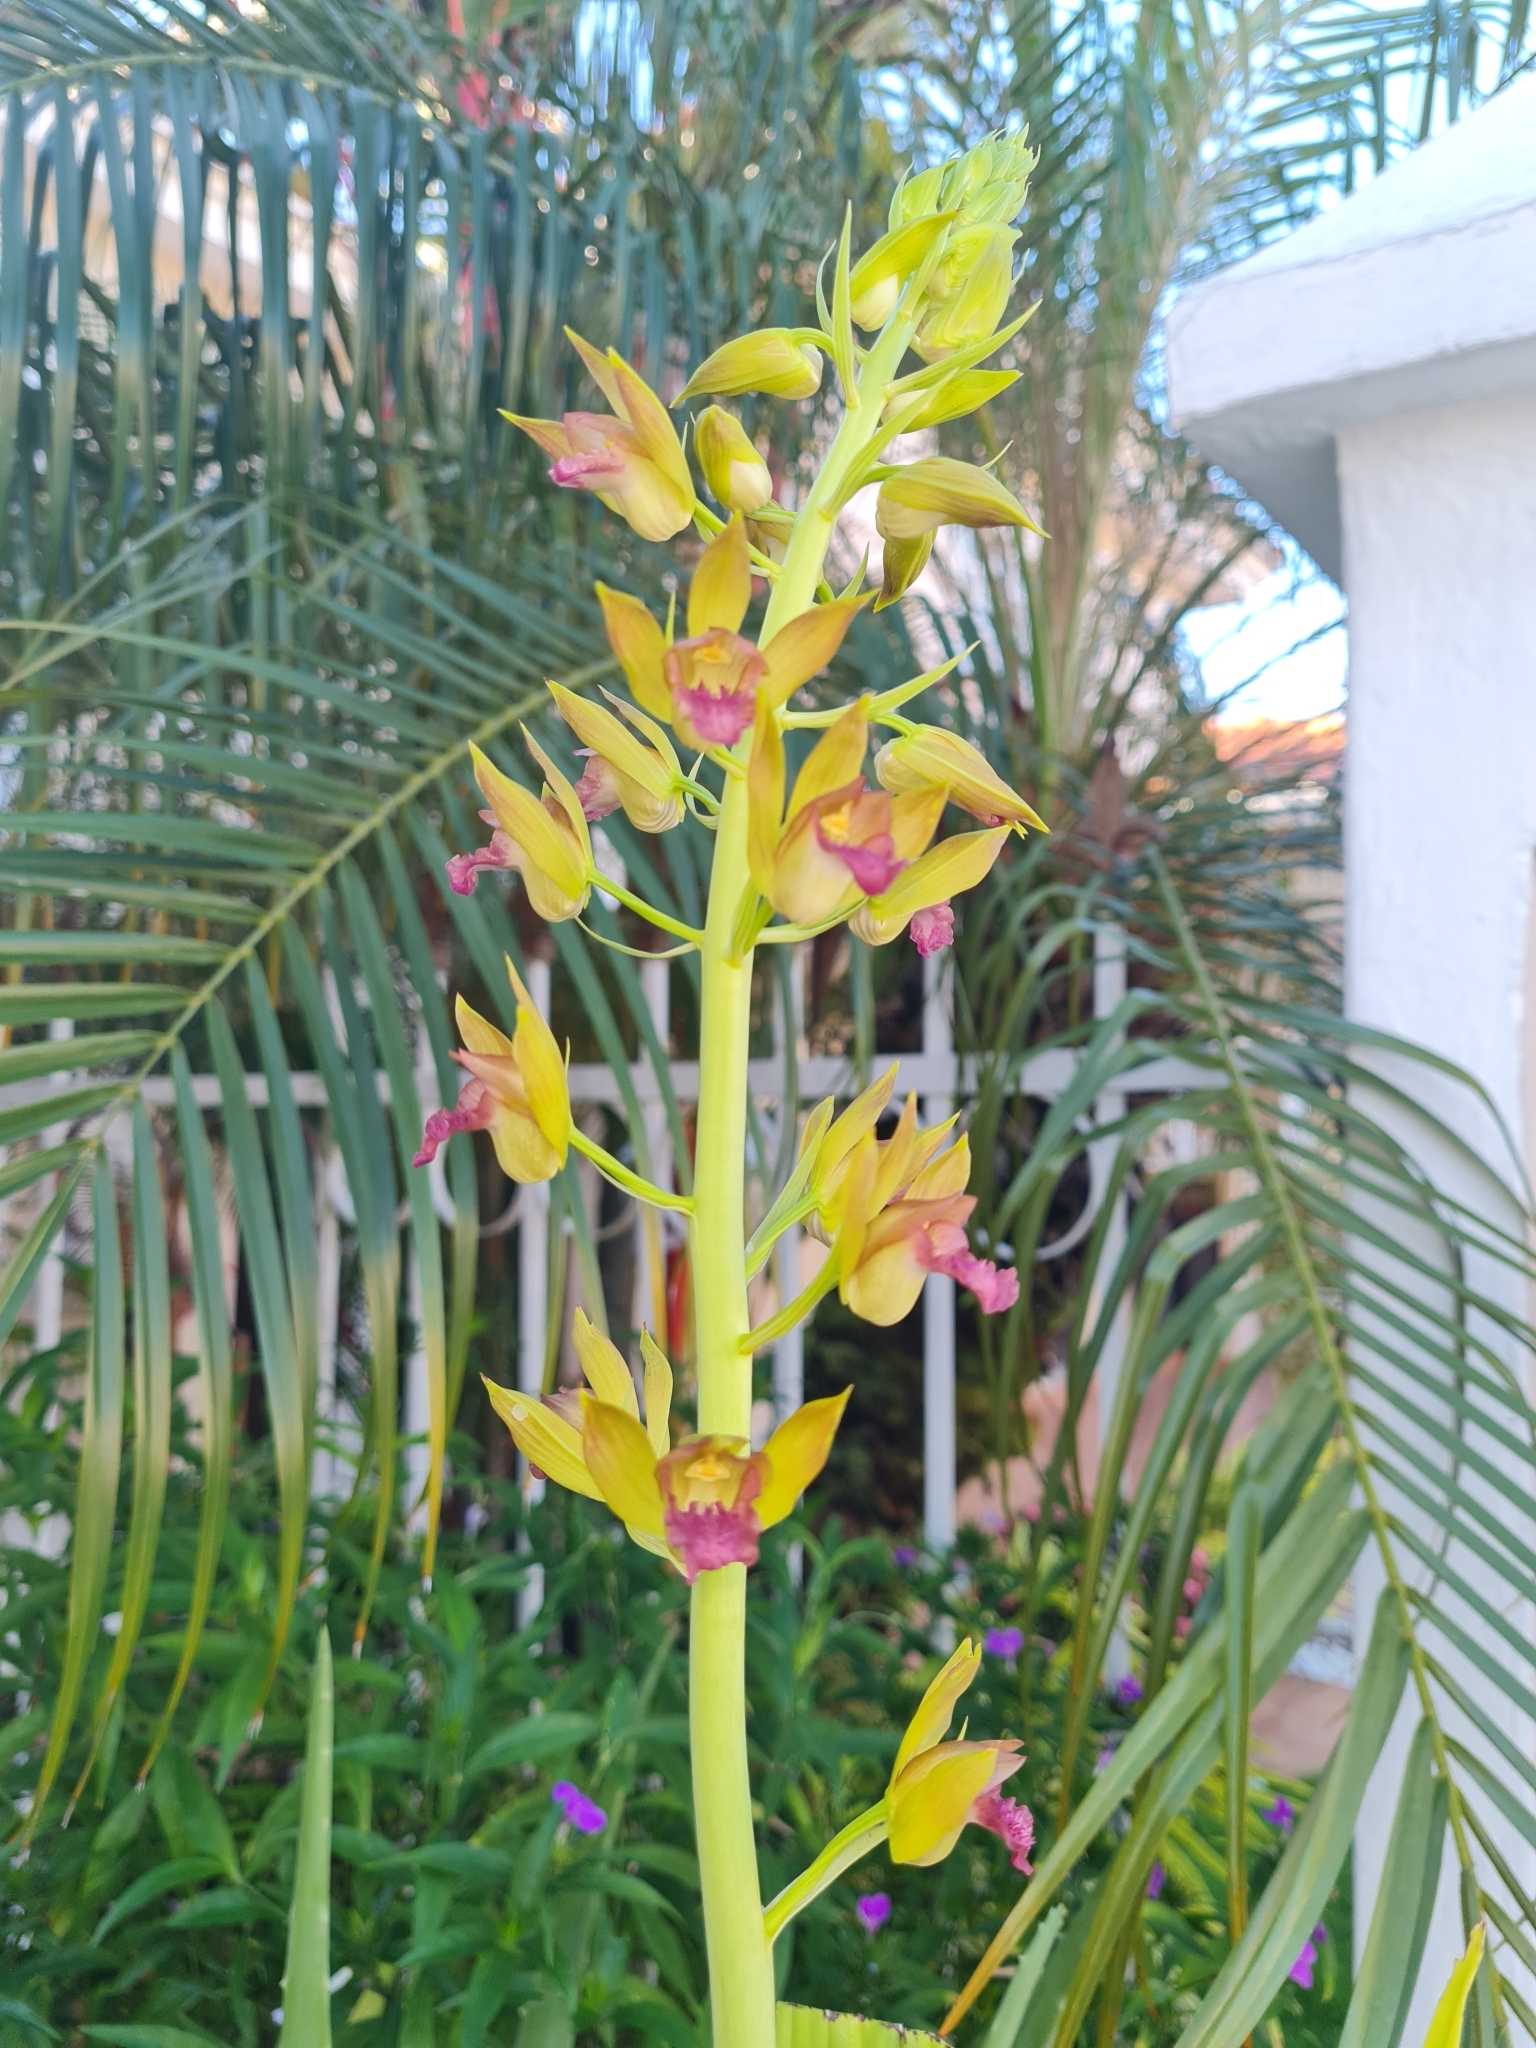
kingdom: Plantae
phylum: Tracheophyta
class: Liliopsida
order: Asparagales
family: Orchidaceae
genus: Eulophia
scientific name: Eulophia alta
